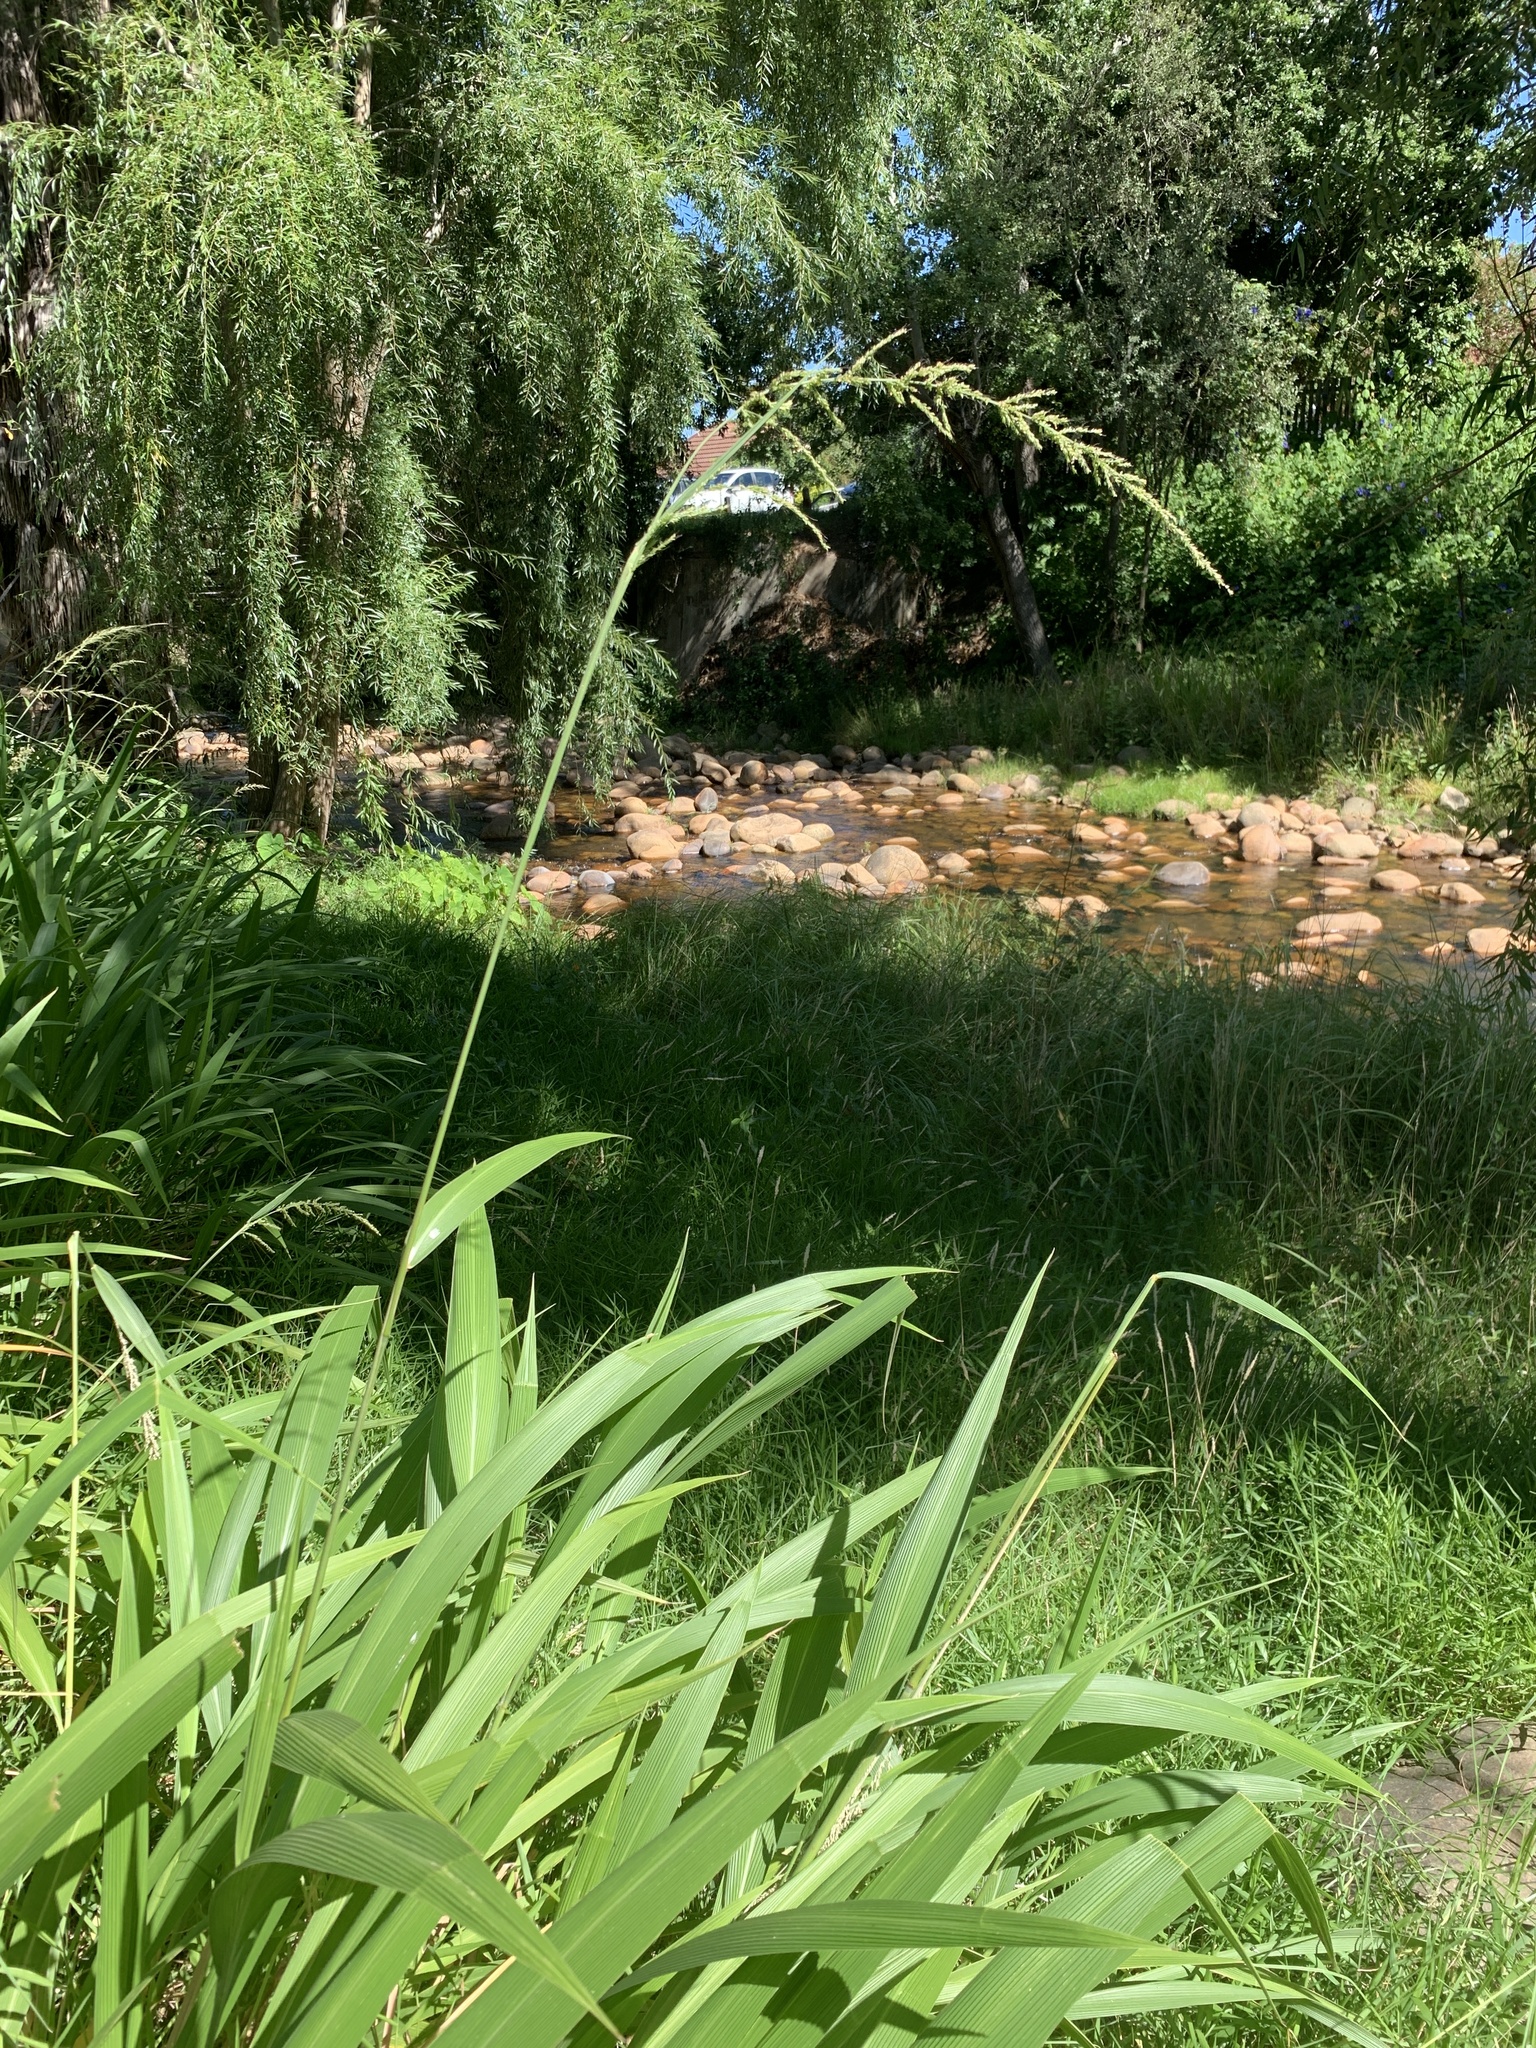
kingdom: Plantae
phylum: Tracheophyta
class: Liliopsida
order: Poales
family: Poaceae
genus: Setaria
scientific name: Setaria megaphylla
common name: Bigleaf bristlegrass
